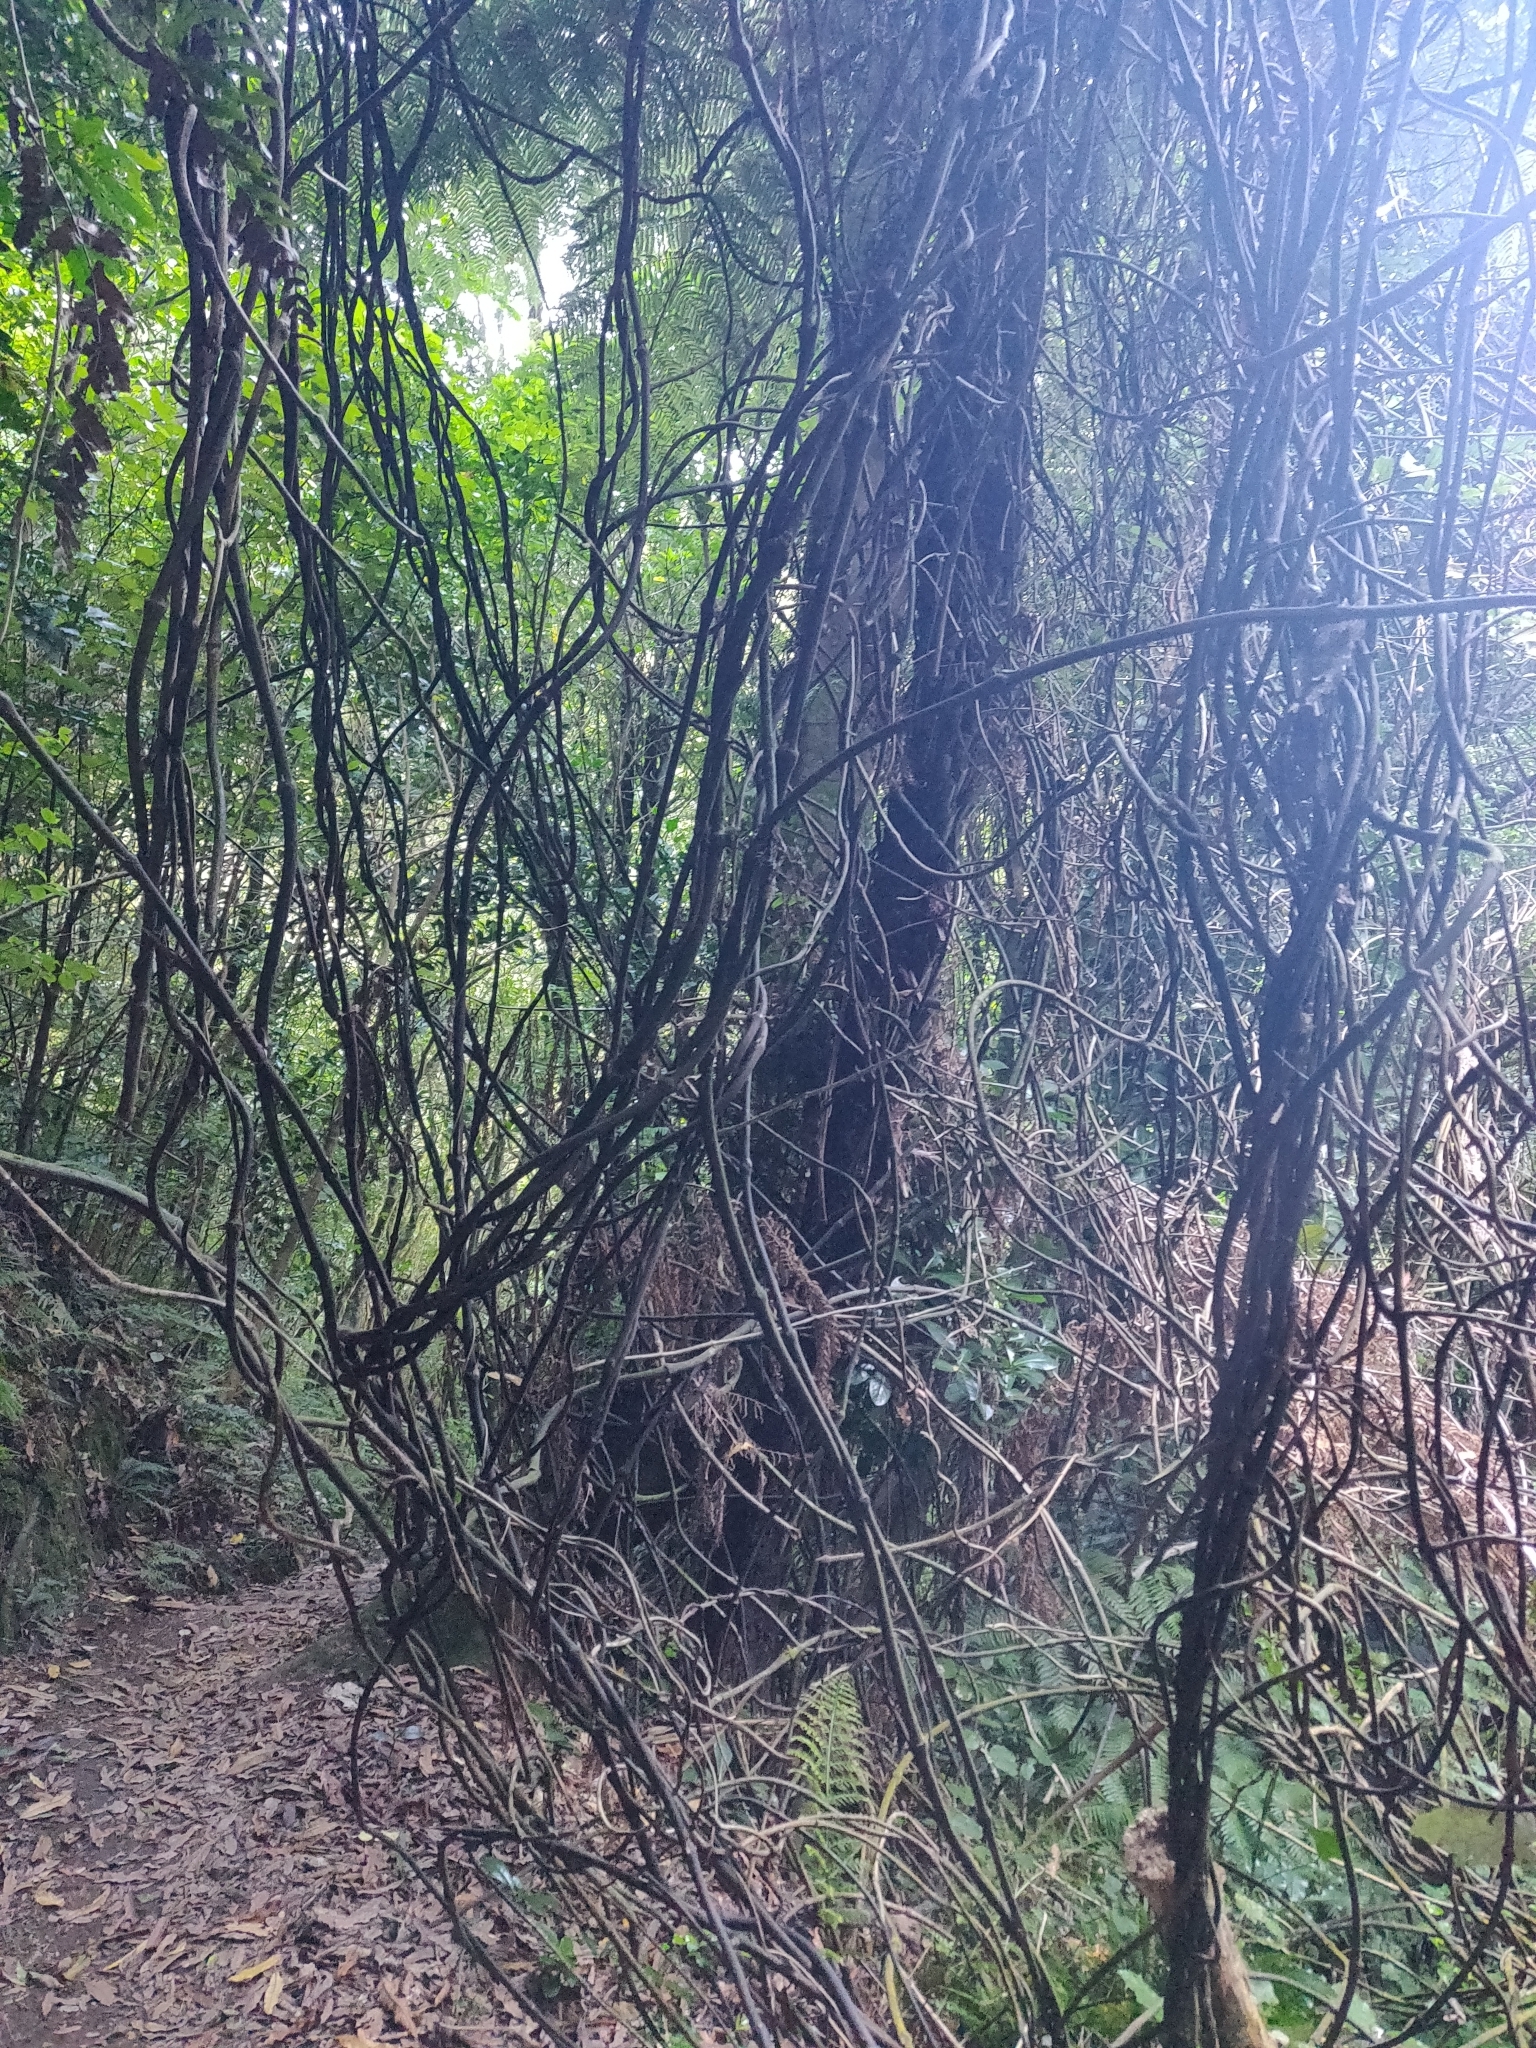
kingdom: Plantae
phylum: Tracheophyta
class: Liliopsida
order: Liliales
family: Ripogonaceae
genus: Ripogonum
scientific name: Ripogonum scandens
